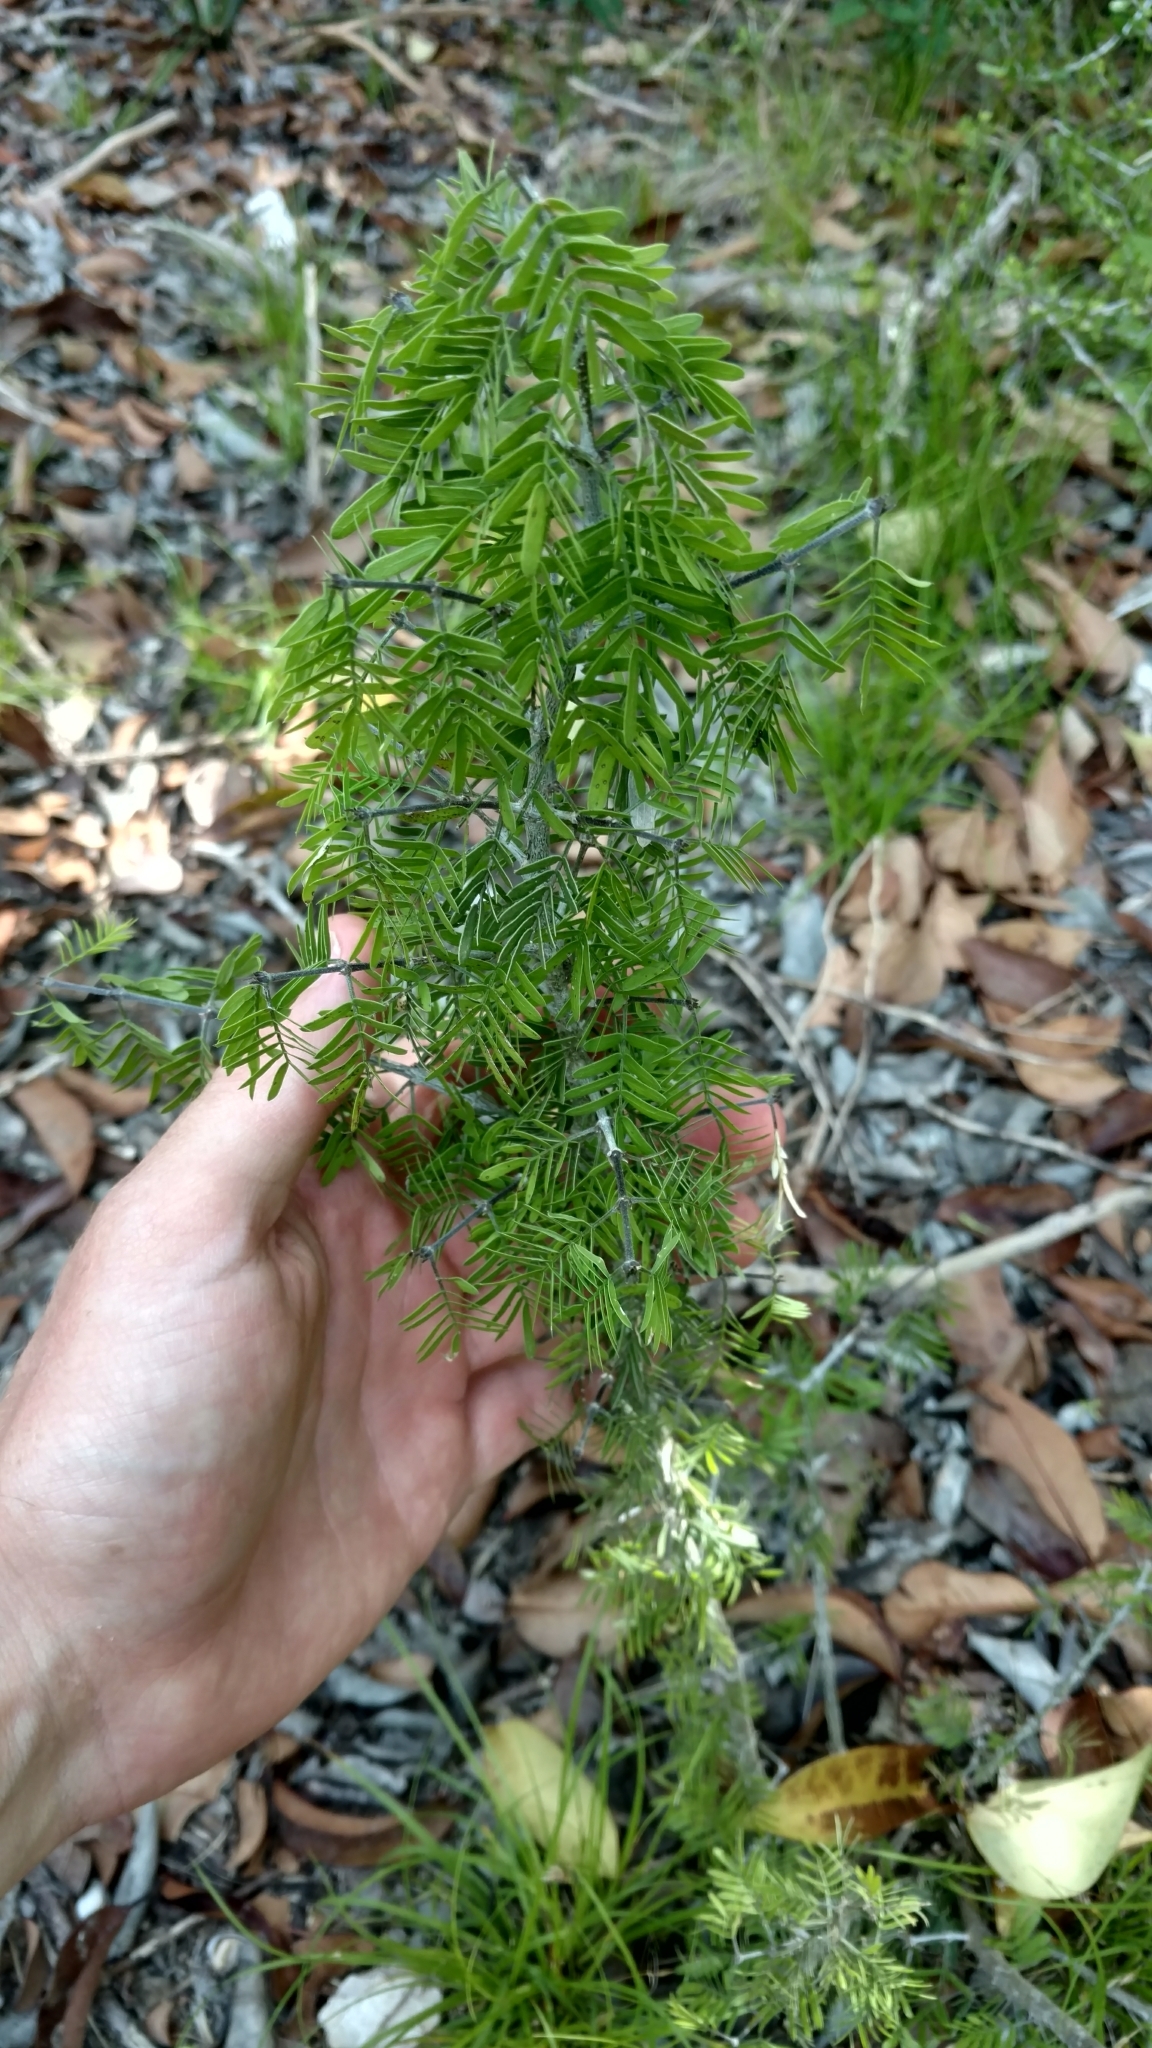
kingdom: Plantae
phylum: Tracheophyta
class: Magnoliopsida
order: Zygophyllales
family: Zygophyllaceae
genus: Porlieria
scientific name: Porlieria angustifolia
